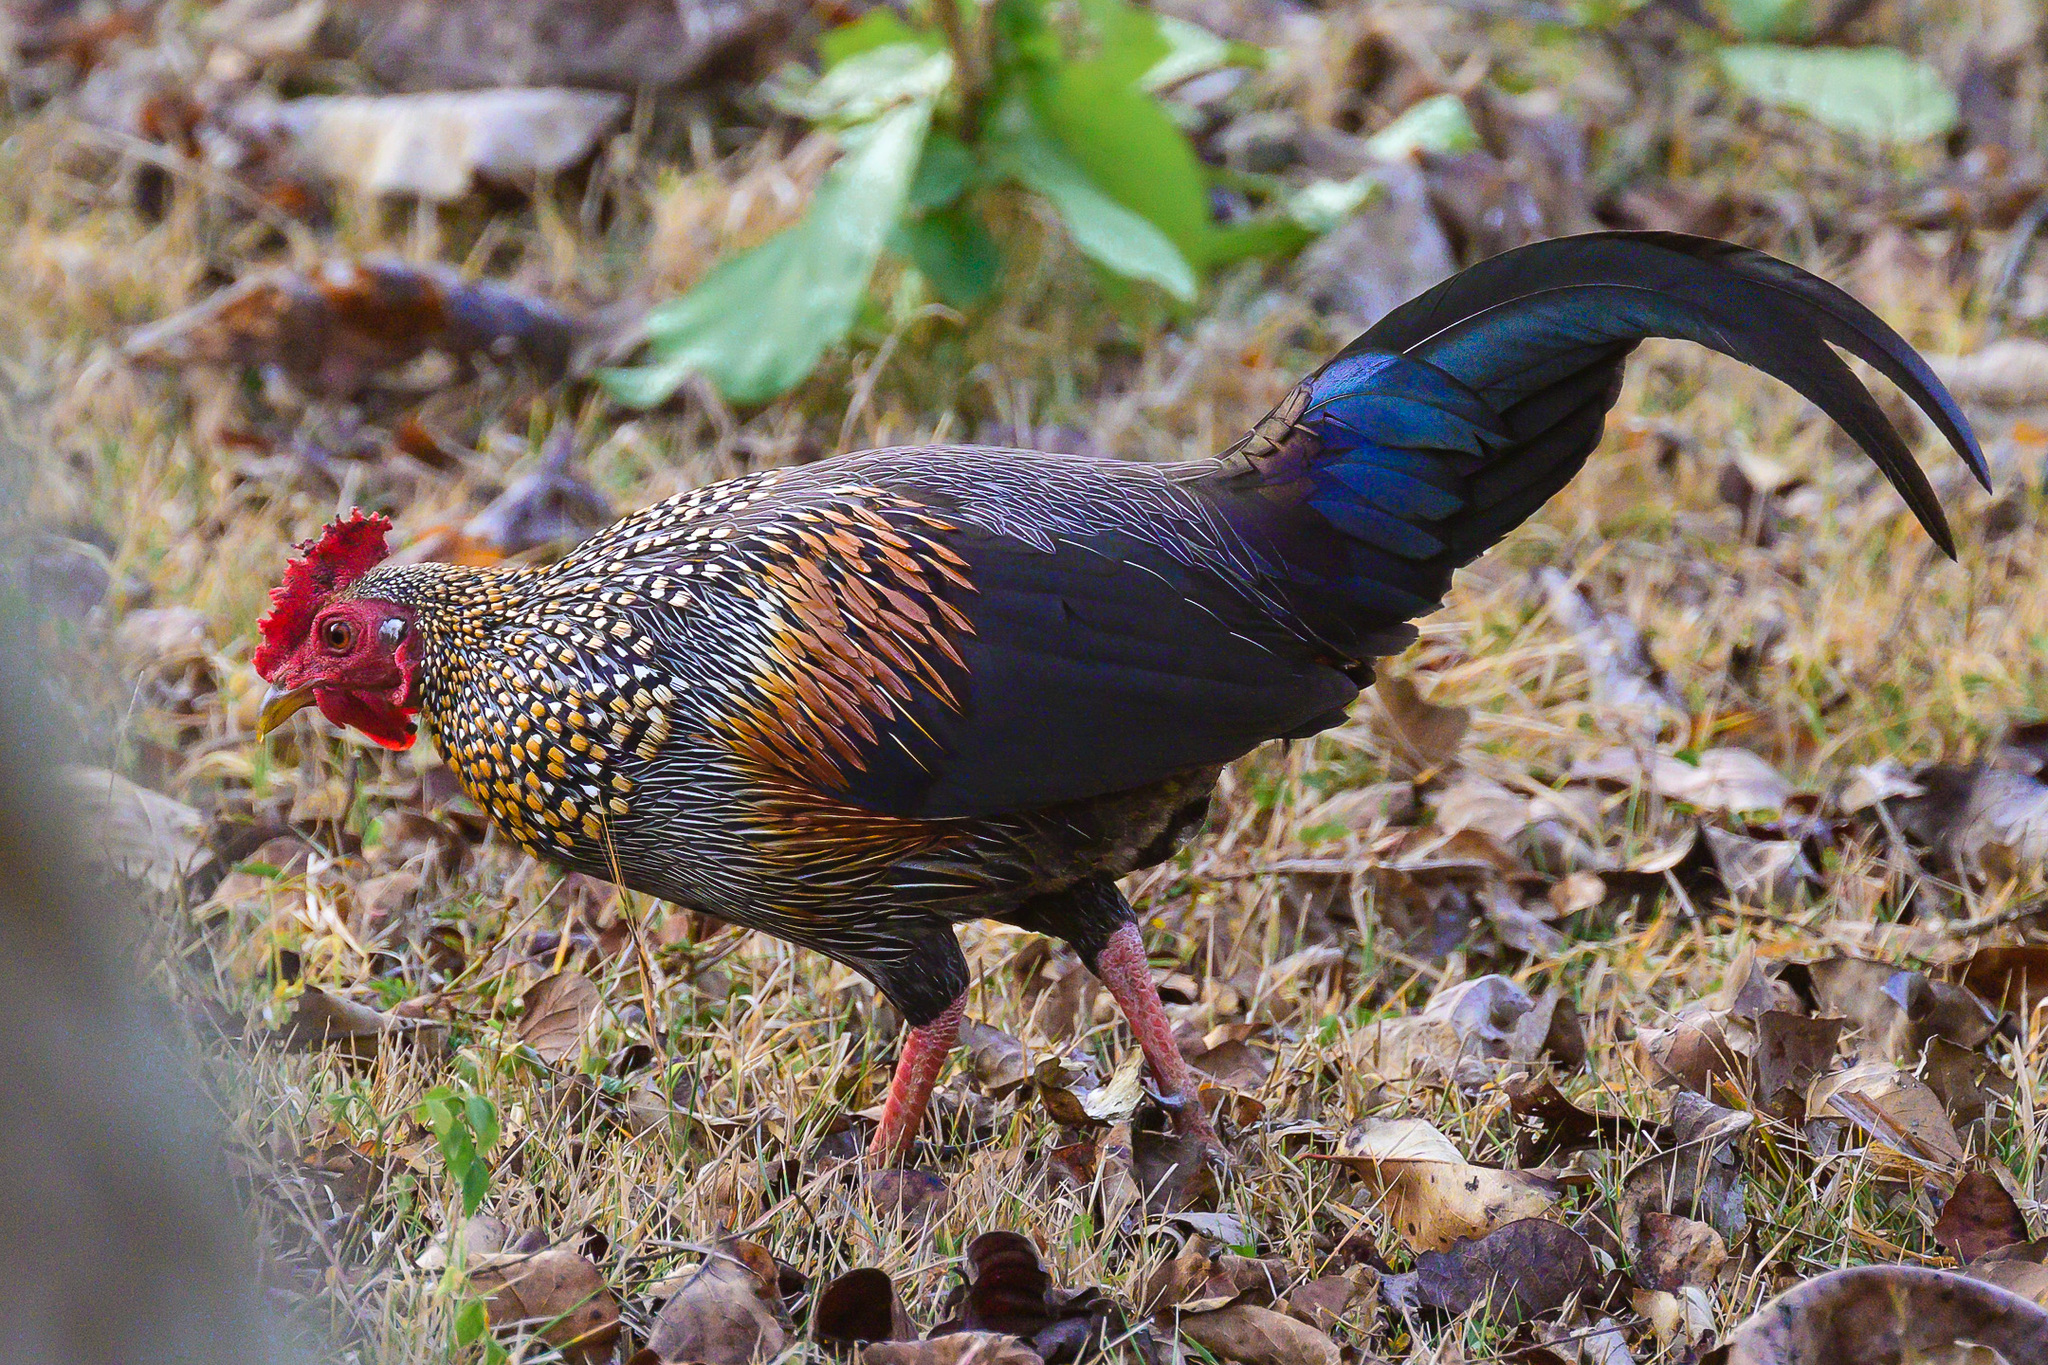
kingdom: Animalia
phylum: Chordata
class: Aves
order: Galliformes
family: Phasianidae
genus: Gallus
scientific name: Gallus sonneratii
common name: Grey junglefowl
